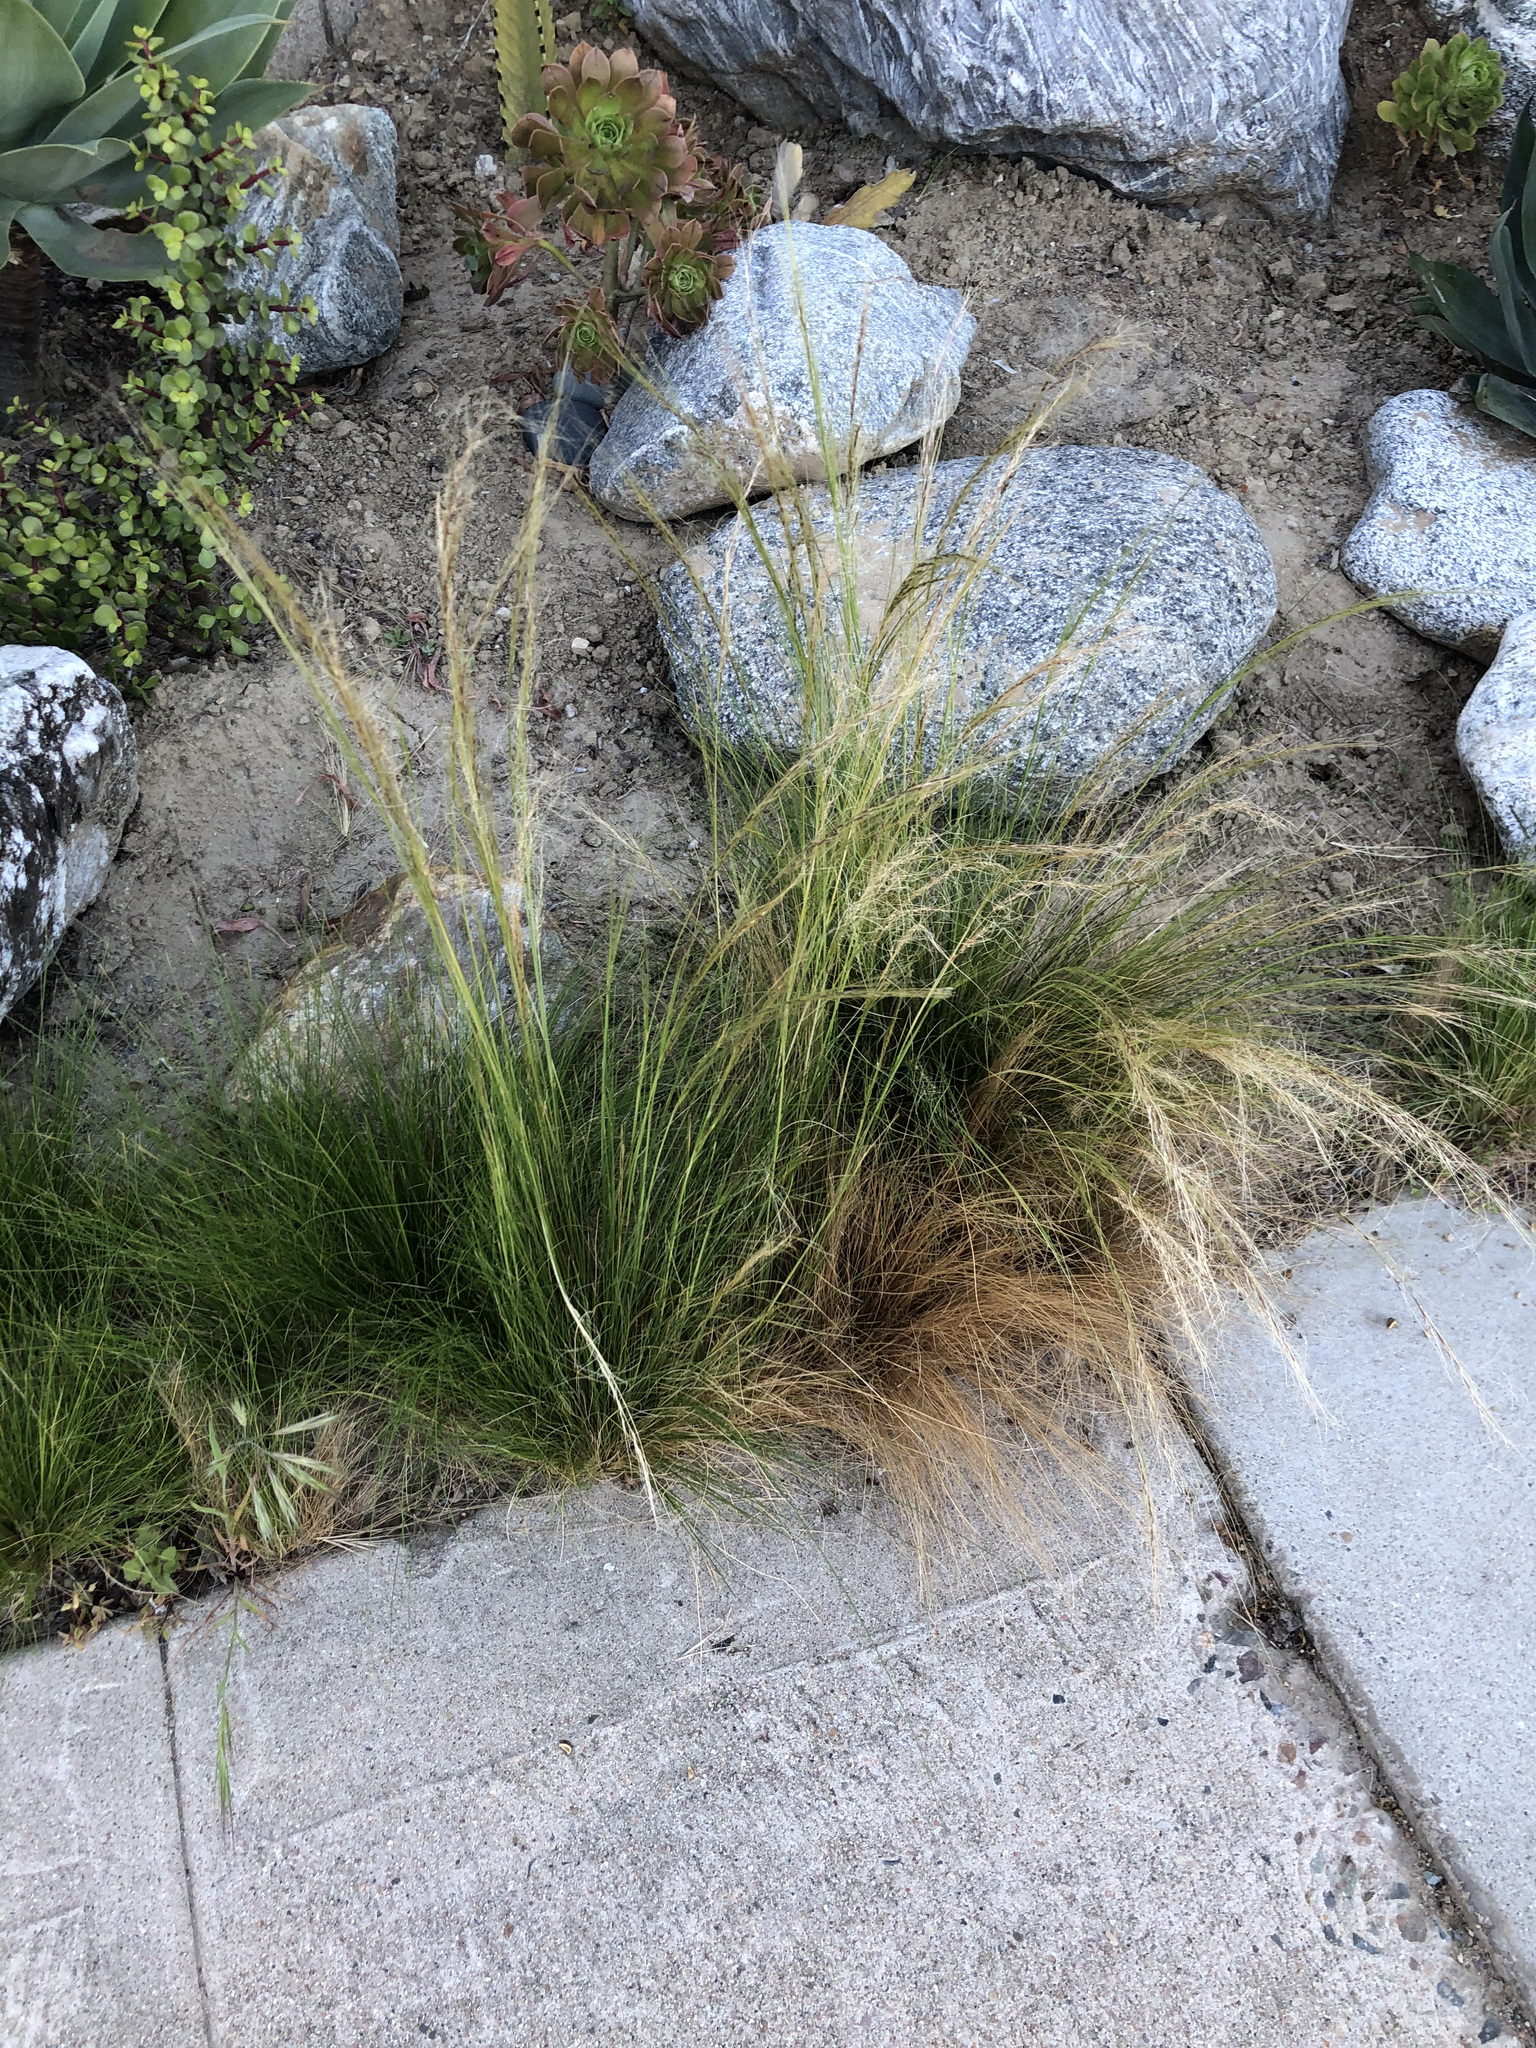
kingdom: Plantae
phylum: Tracheophyta
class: Liliopsida
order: Poales
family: Poaceae
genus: Nassella
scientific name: Nassella tenuissima
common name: Argentine needlegrass
